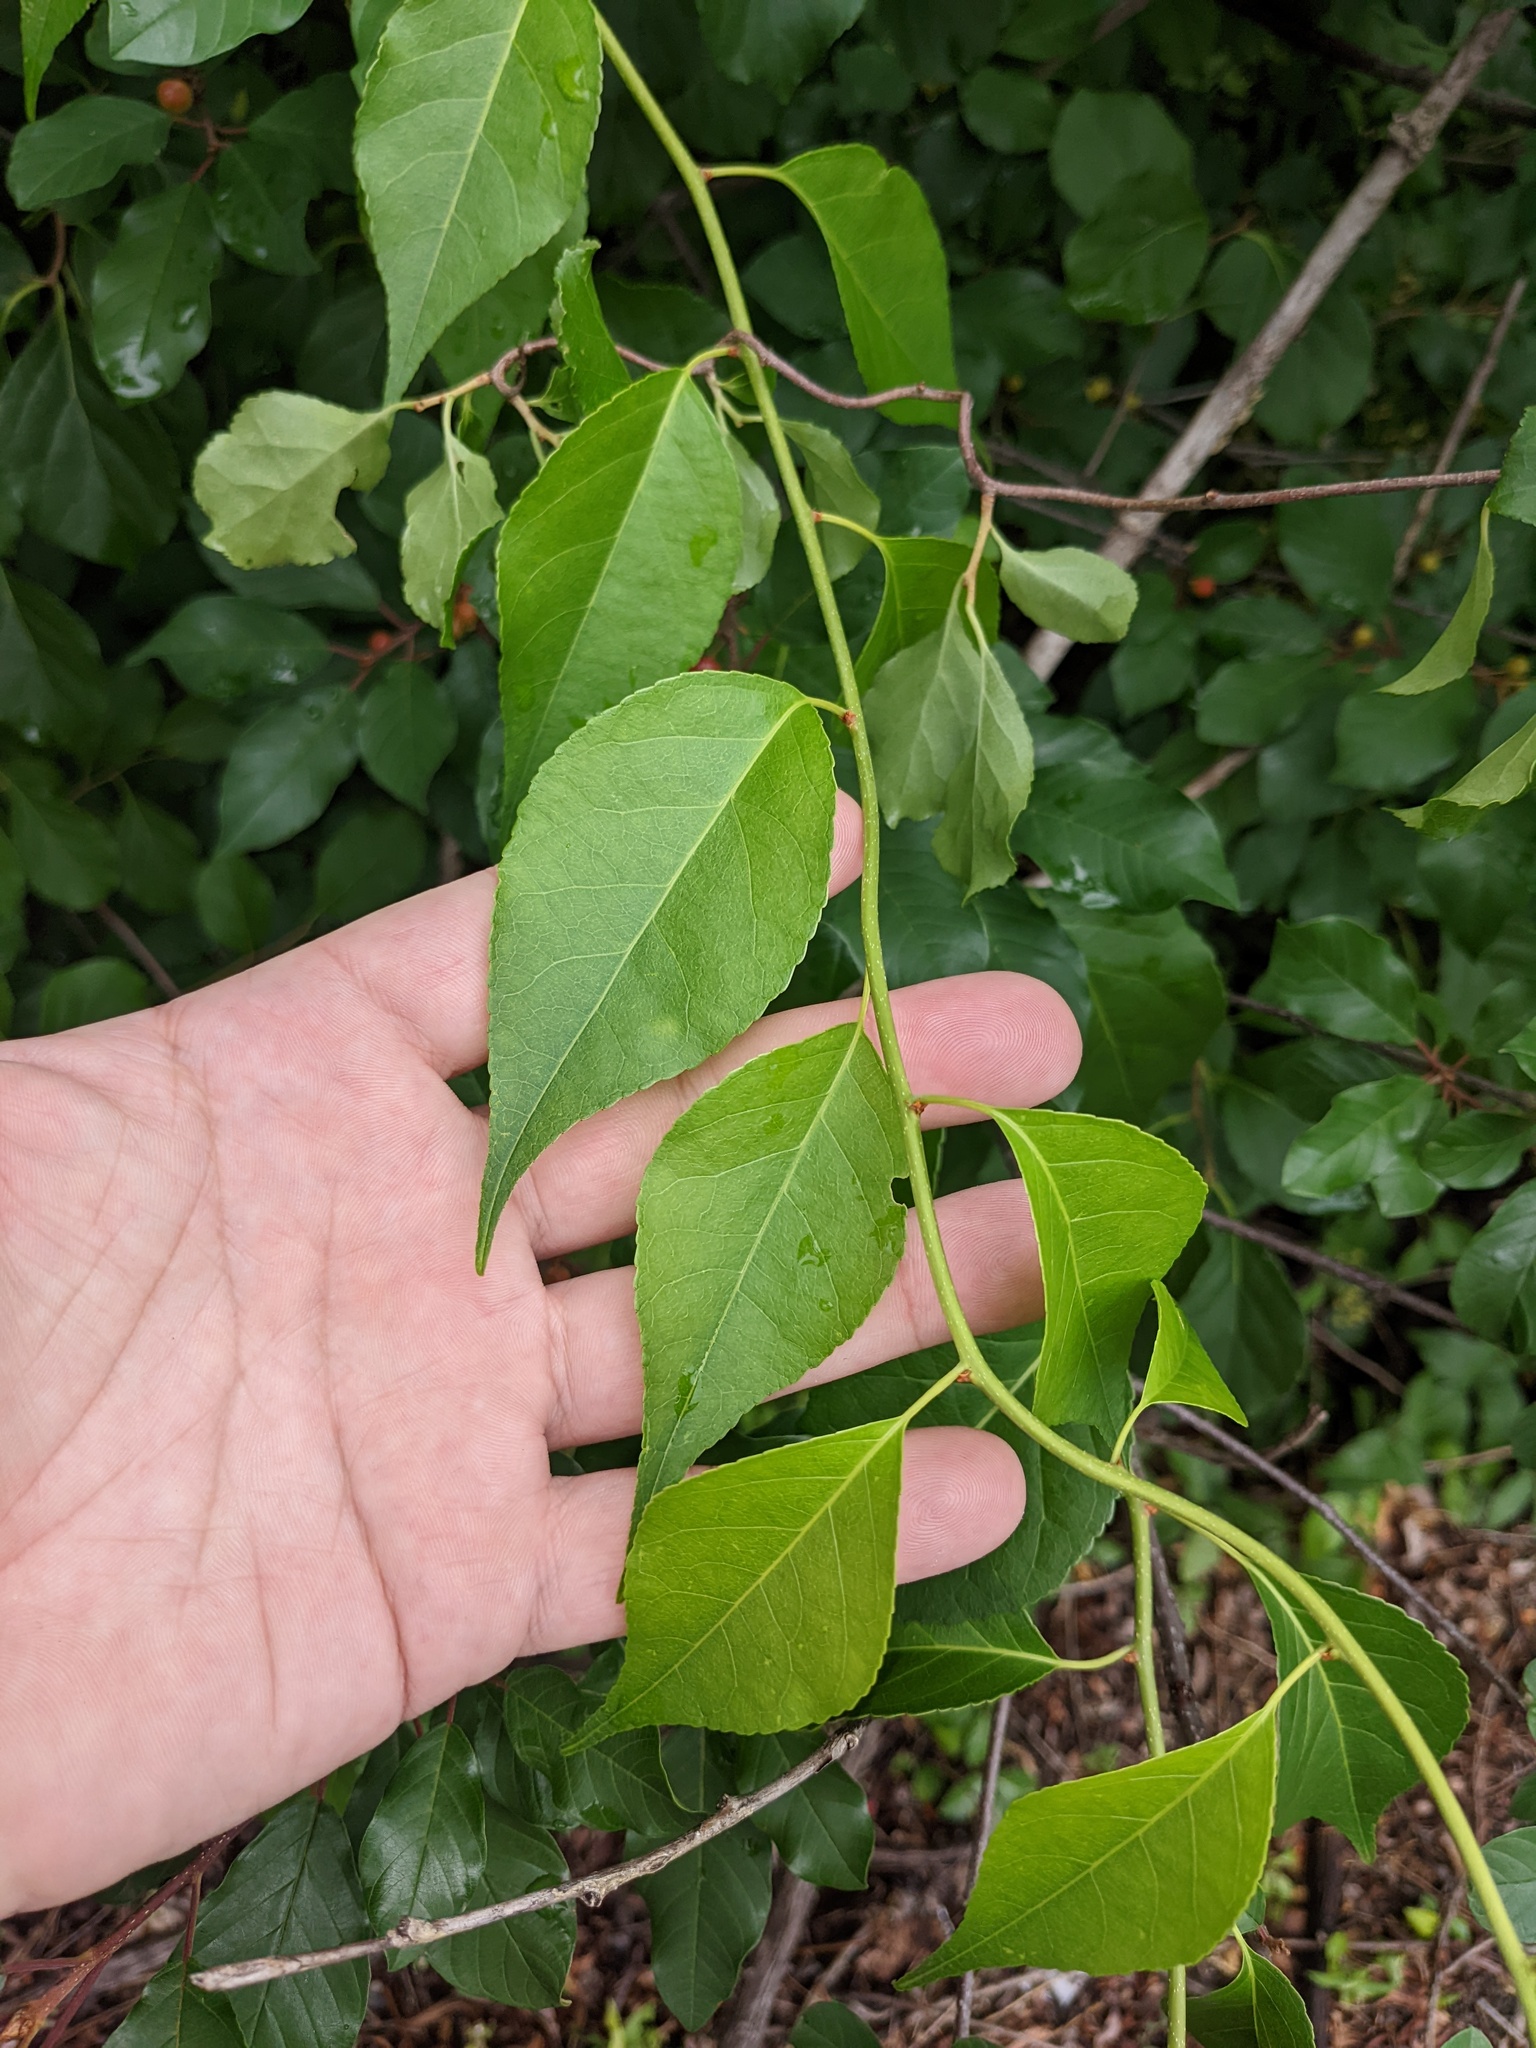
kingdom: Plantae
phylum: Tracheophyta
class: Magnoliopsida
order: Celastrales
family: Celastraceae
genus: Celastrus
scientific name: Celastrus orbiculatus
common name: Oriental bittersweet
